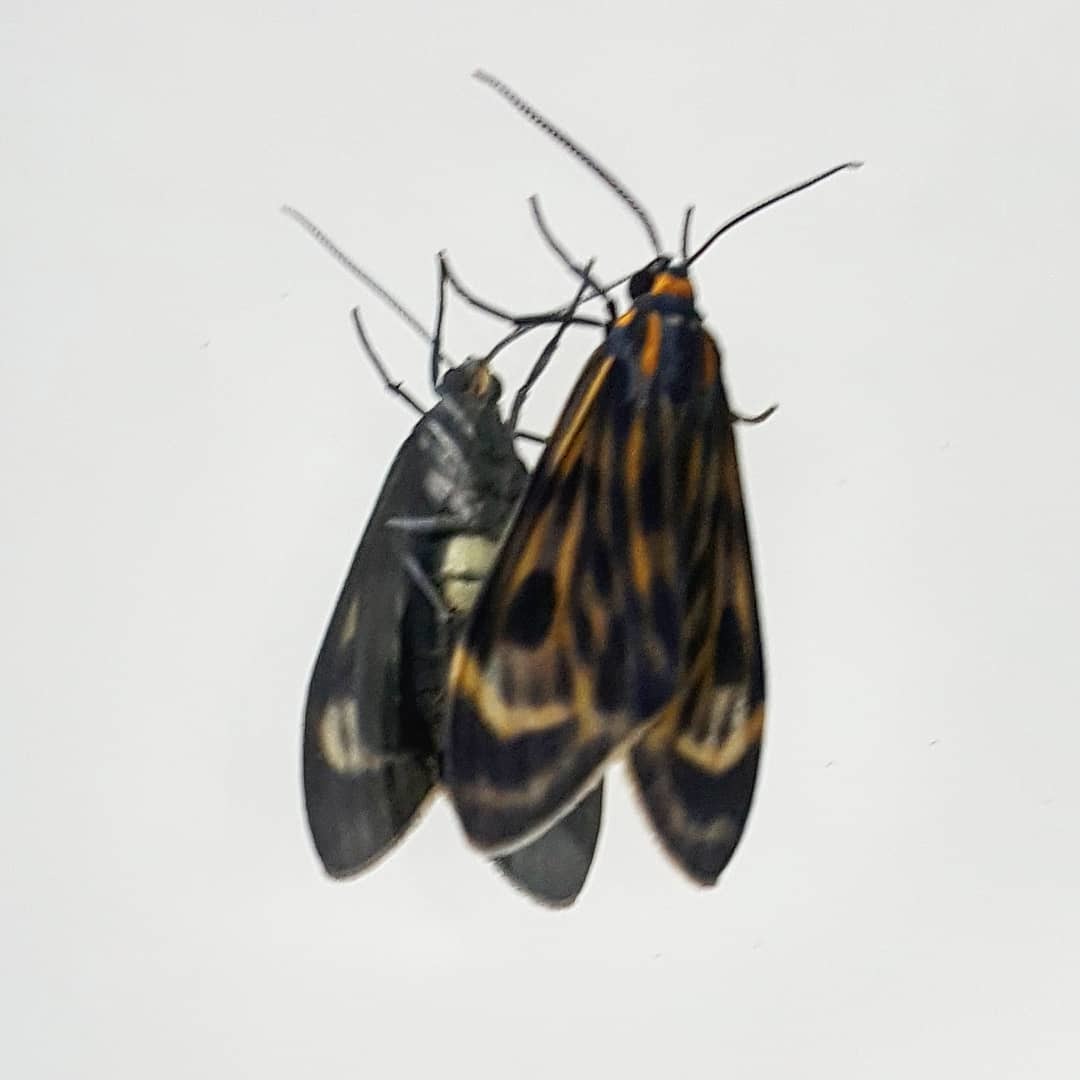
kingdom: Animalia
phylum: Arthropoda
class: Insecta
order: Lepidoptera
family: Erebidae
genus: Eucereon
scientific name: Eucereon phaeoproctum
